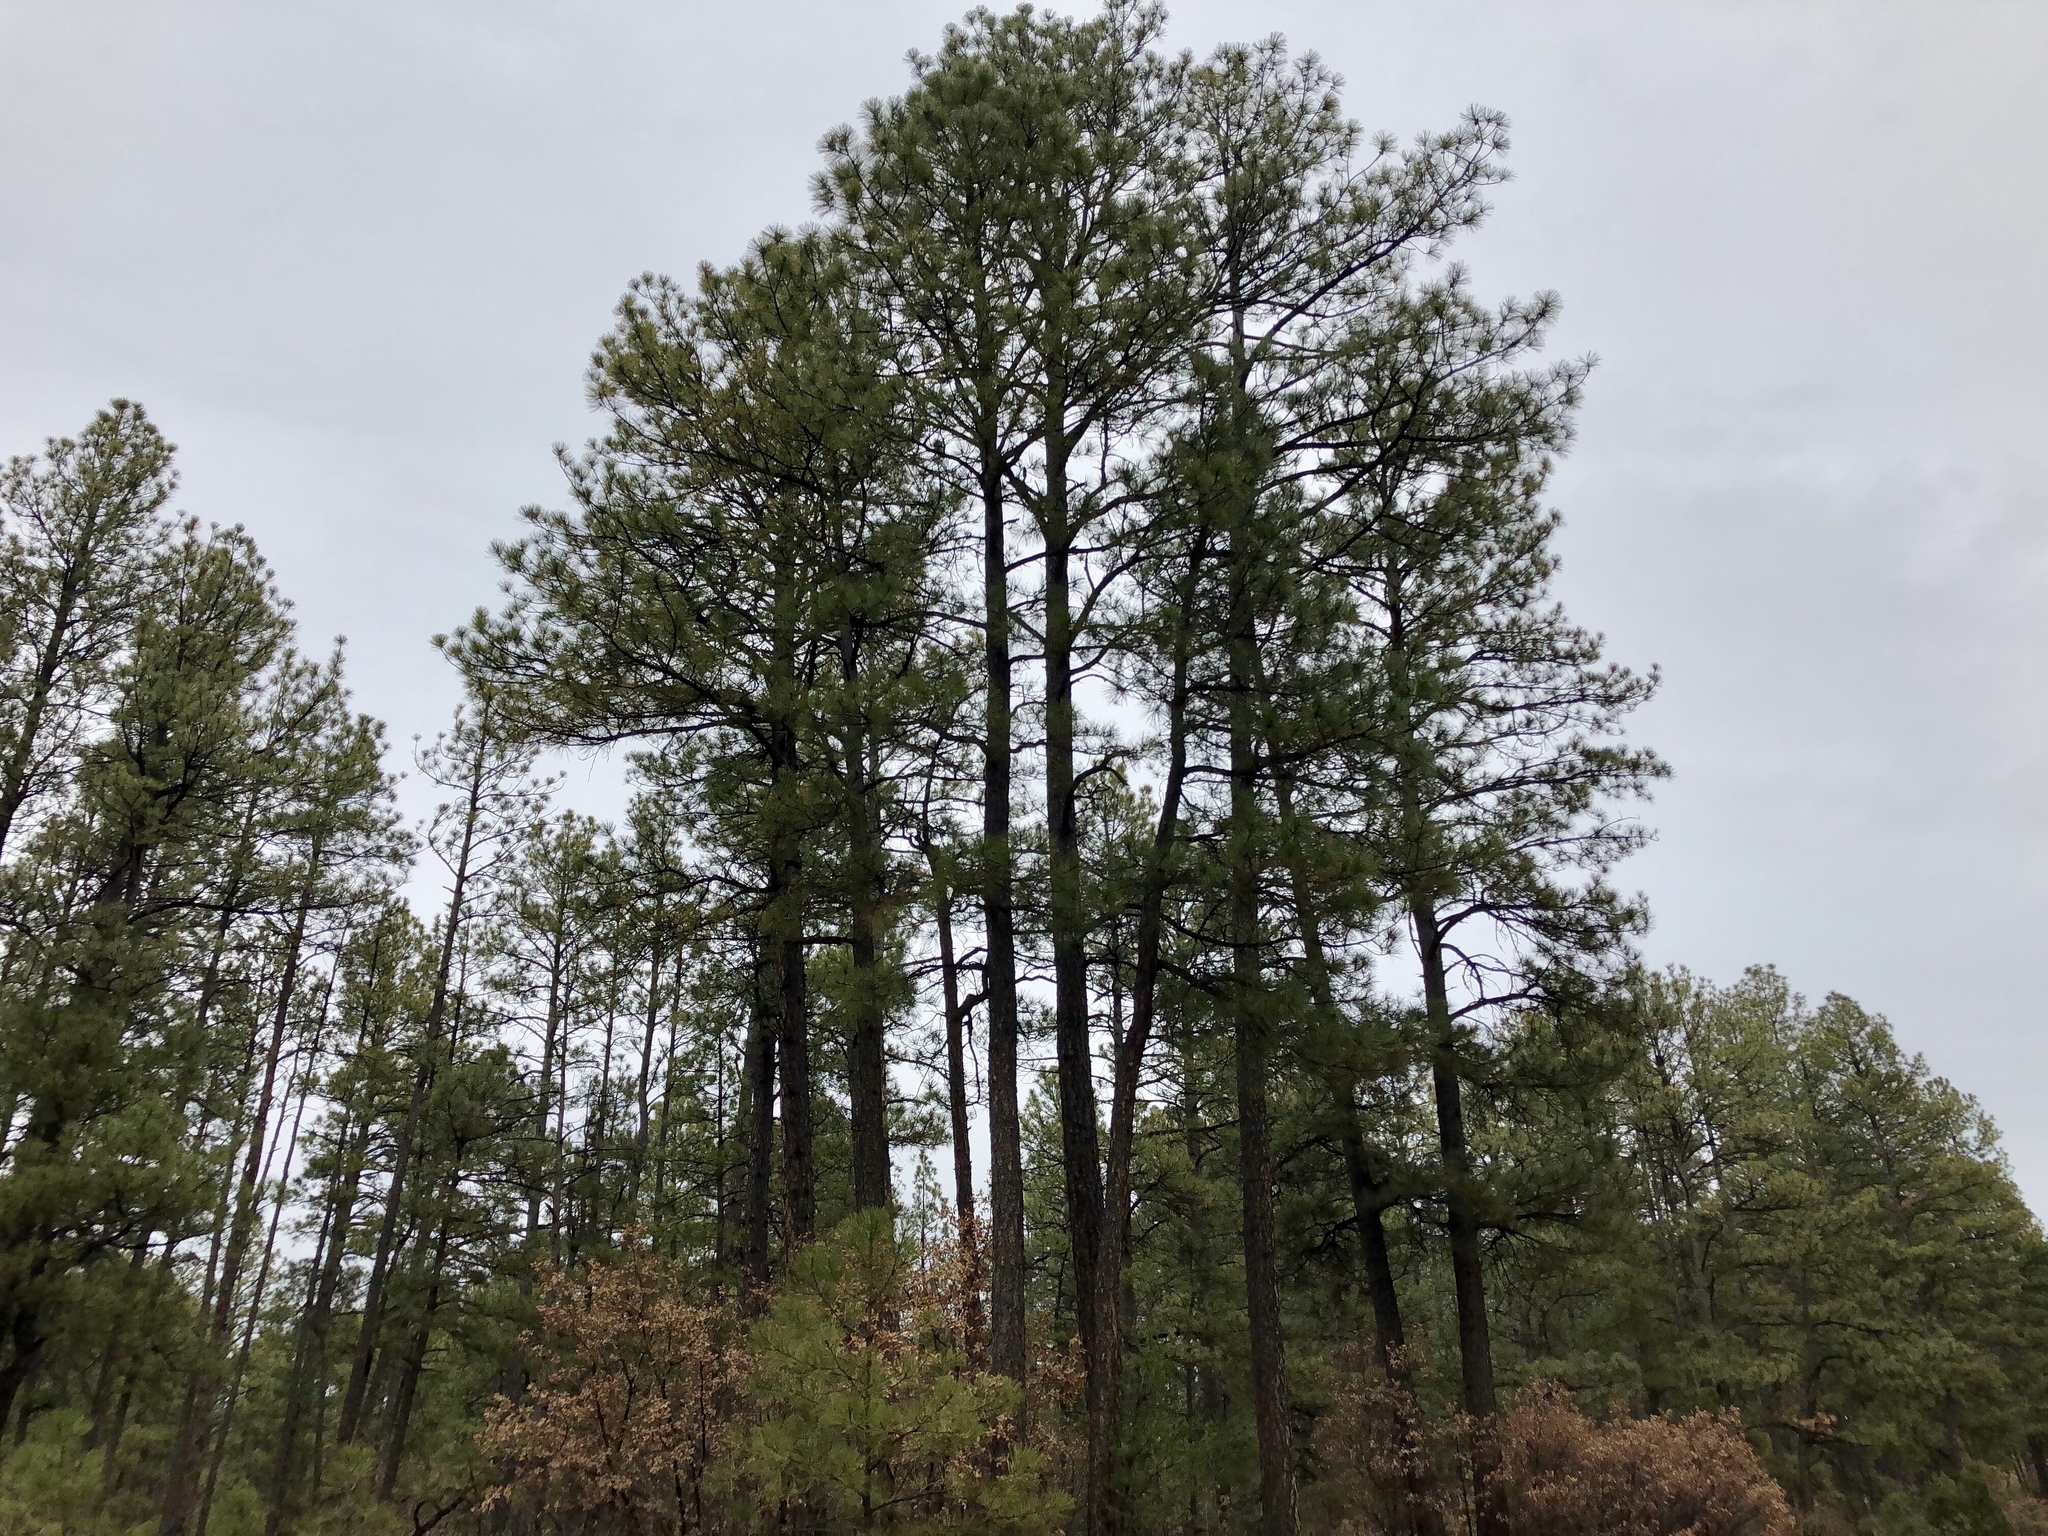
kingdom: Plantae
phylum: Tracheophyta
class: Pinopsida
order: Pinales
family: Pinaceae
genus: Pinus
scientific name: Pinus ponderosa
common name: Western yellow-pine
